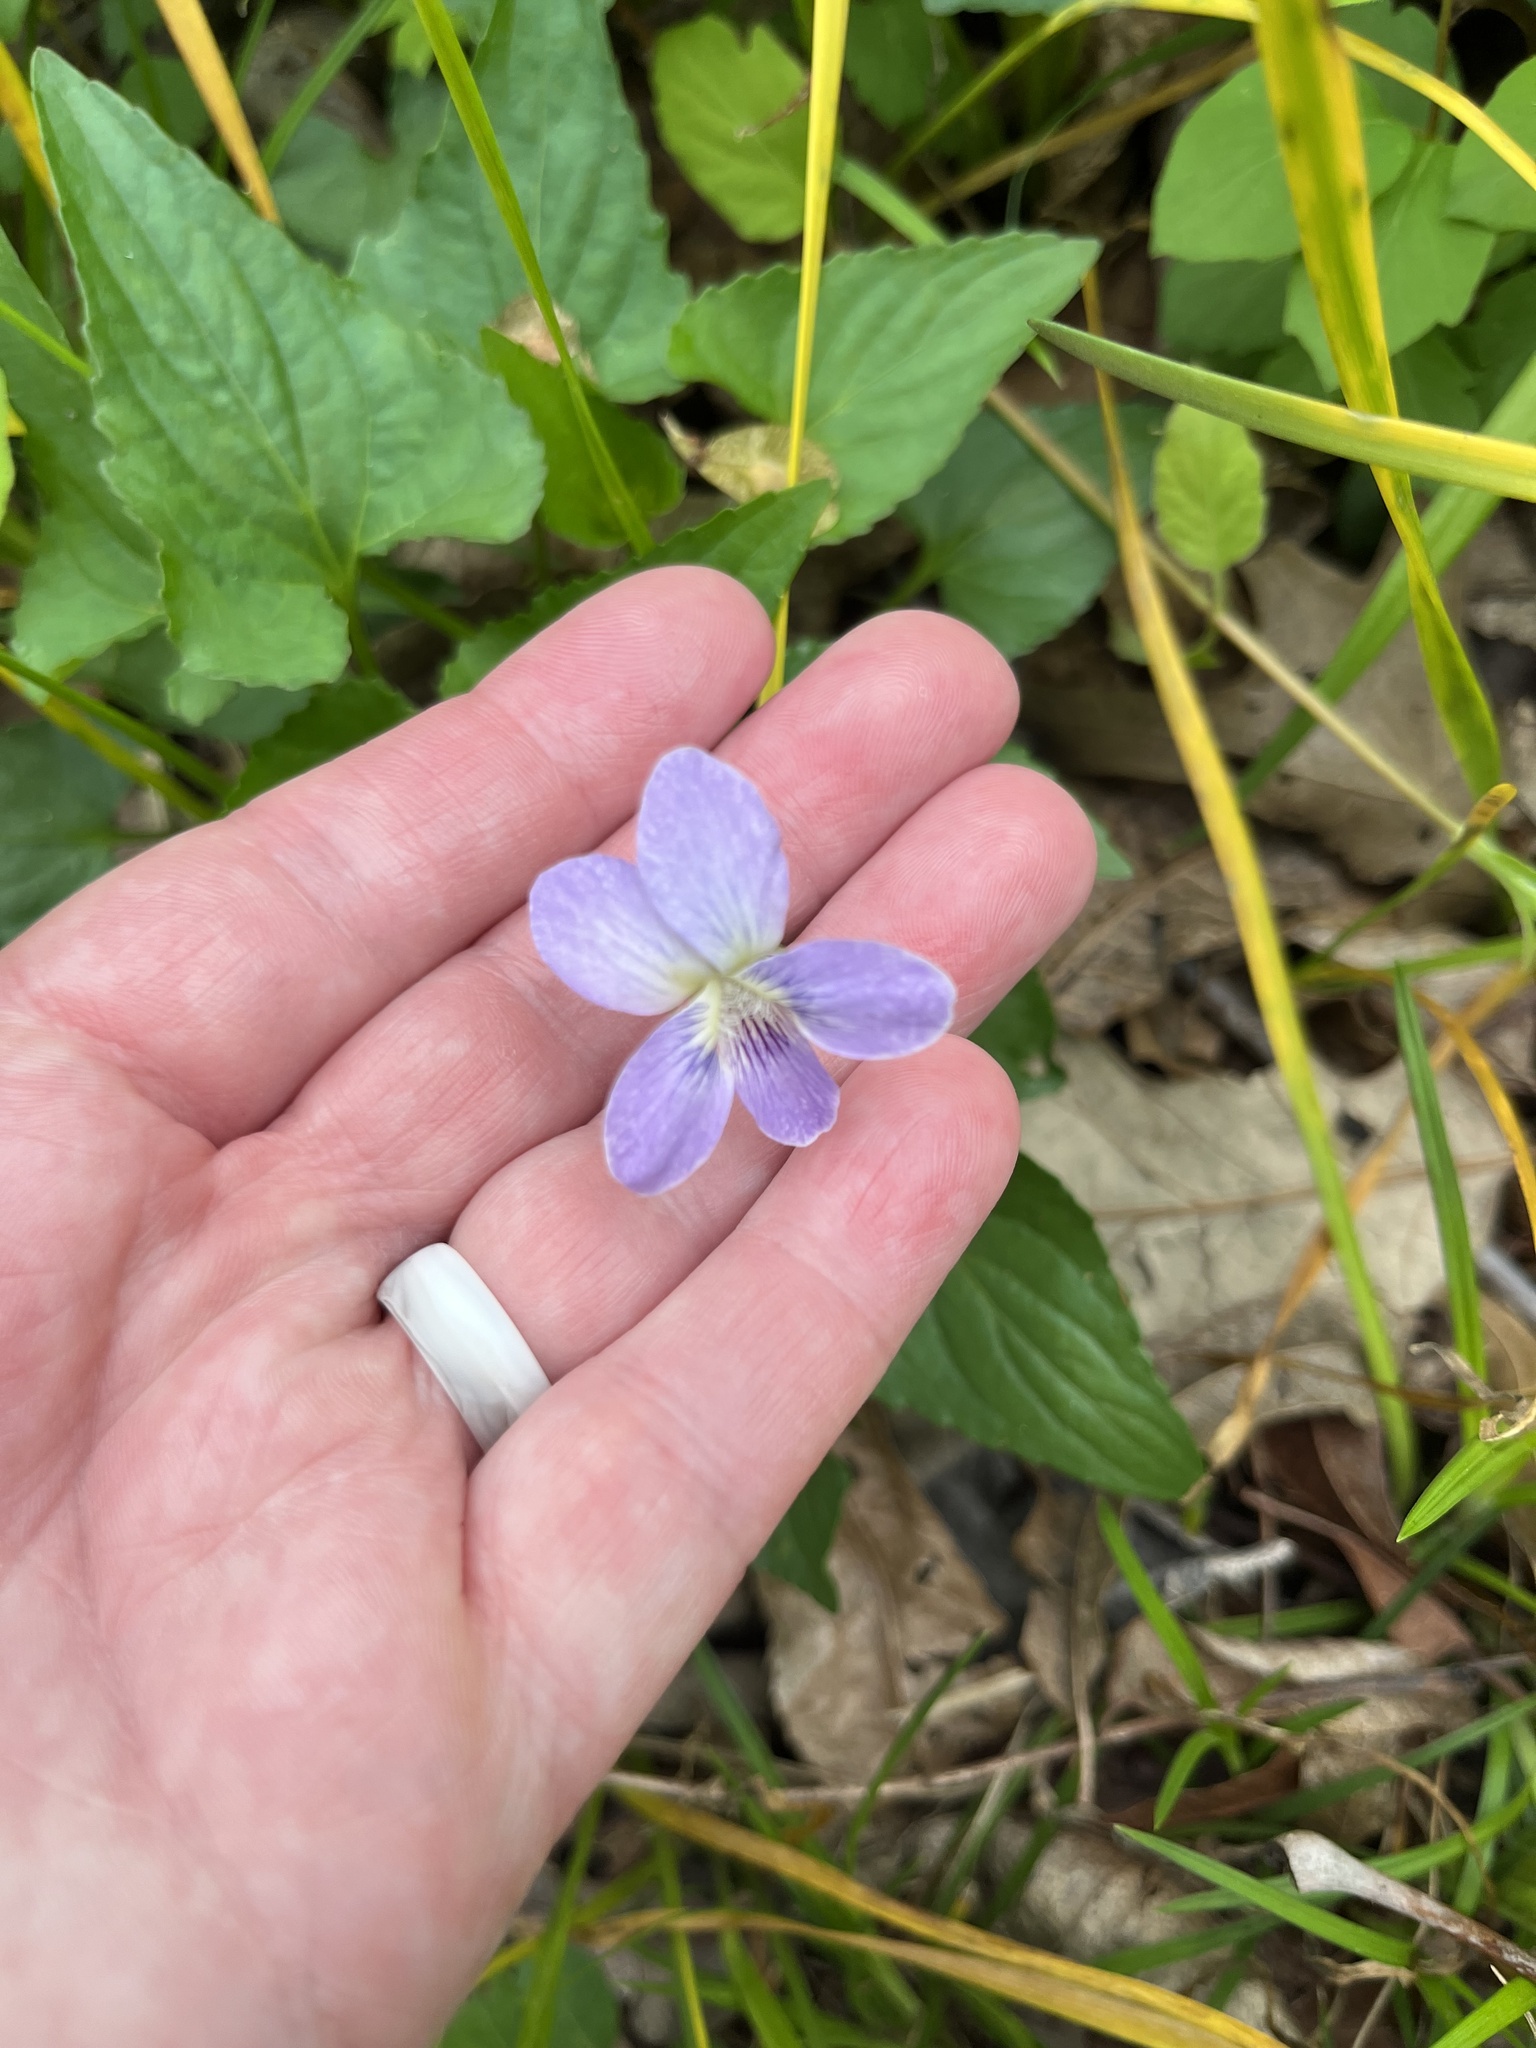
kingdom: Plantae
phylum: Tracheophyta
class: Magnoliopsida
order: Malpighiales
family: Violaceae
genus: Viola
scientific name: Viola missouriensis
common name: Missouri violet
